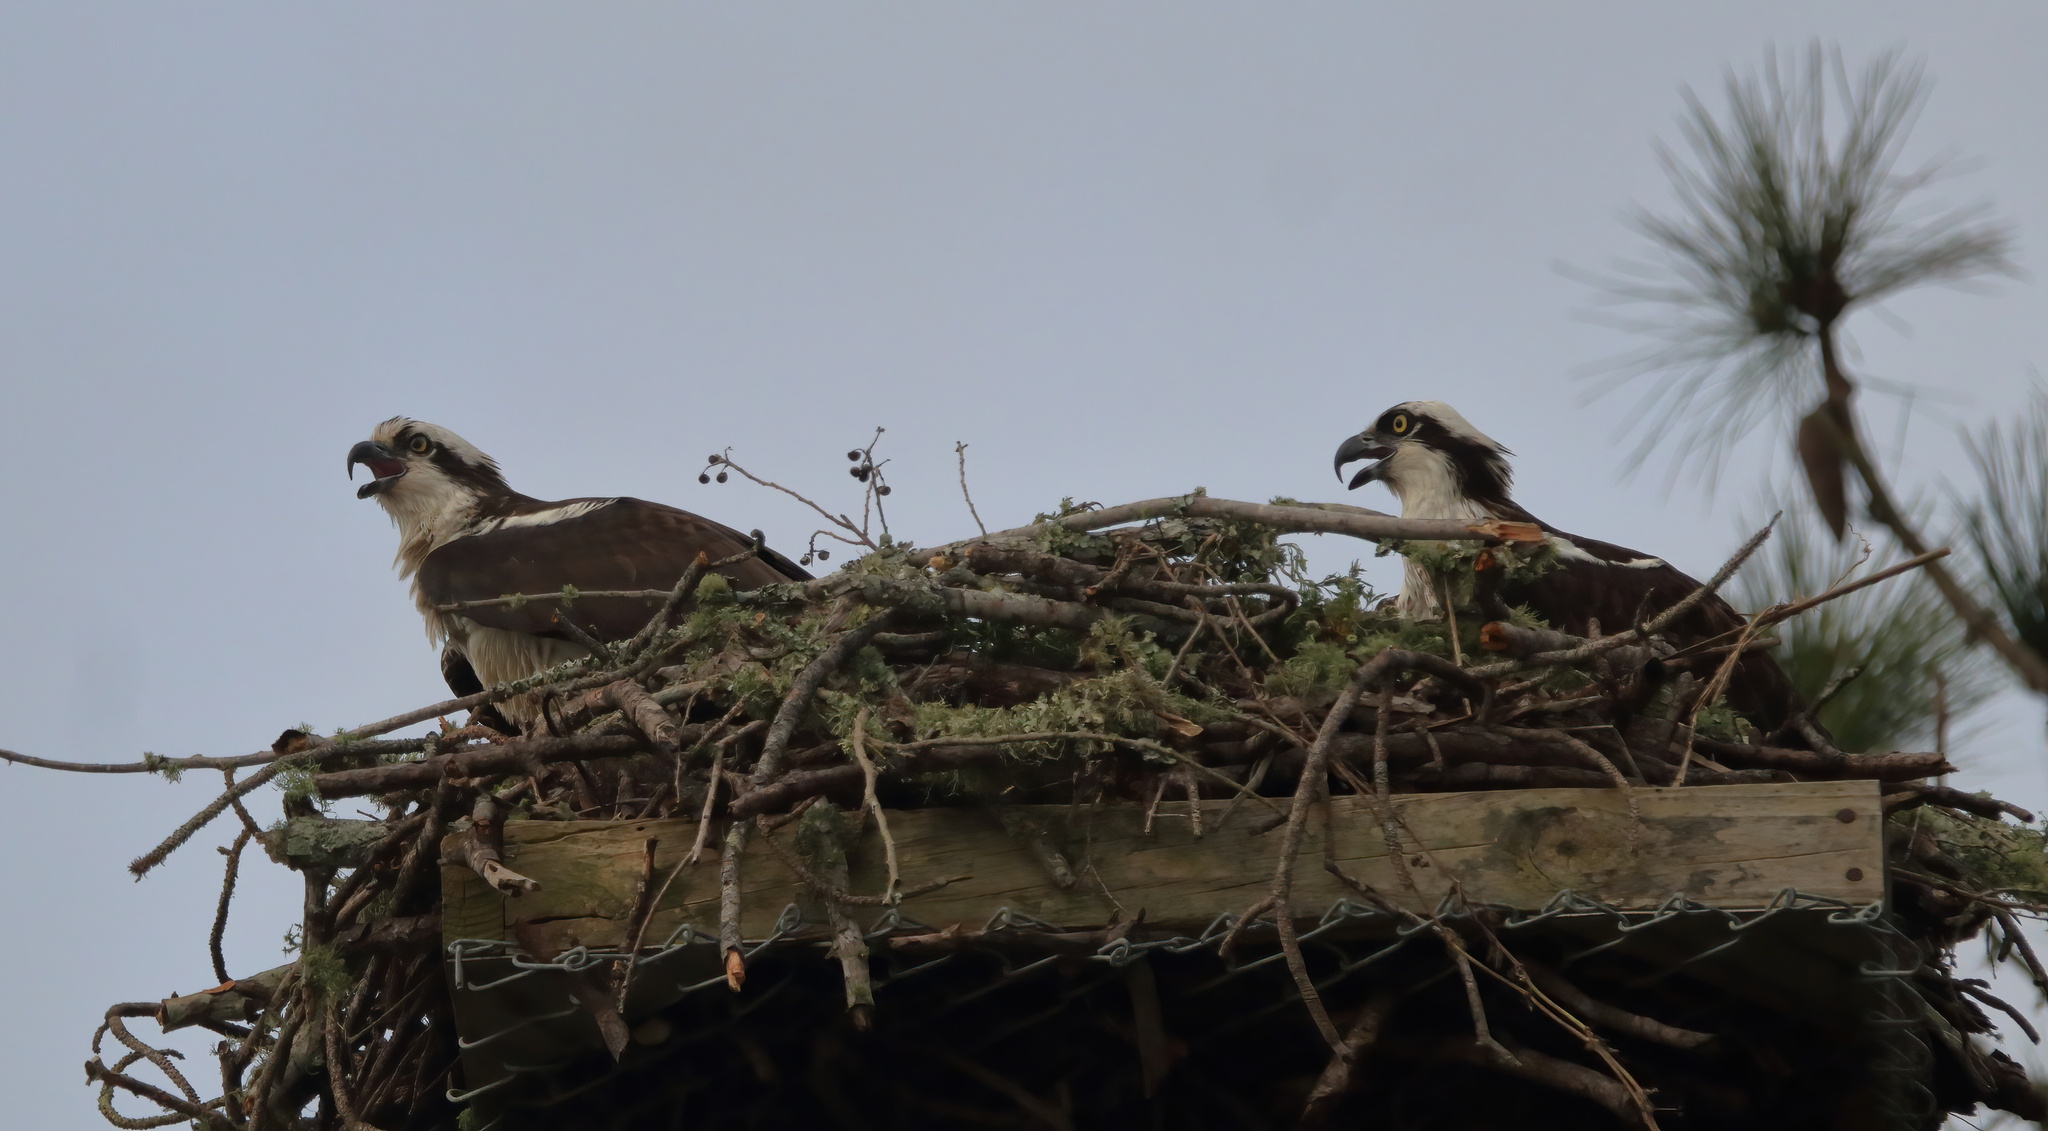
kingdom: Animalia
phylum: Chordata
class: Aves
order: Accipitriformes
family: Pandionidae
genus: Pandion
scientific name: Pandion haliaetus
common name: Osprey
